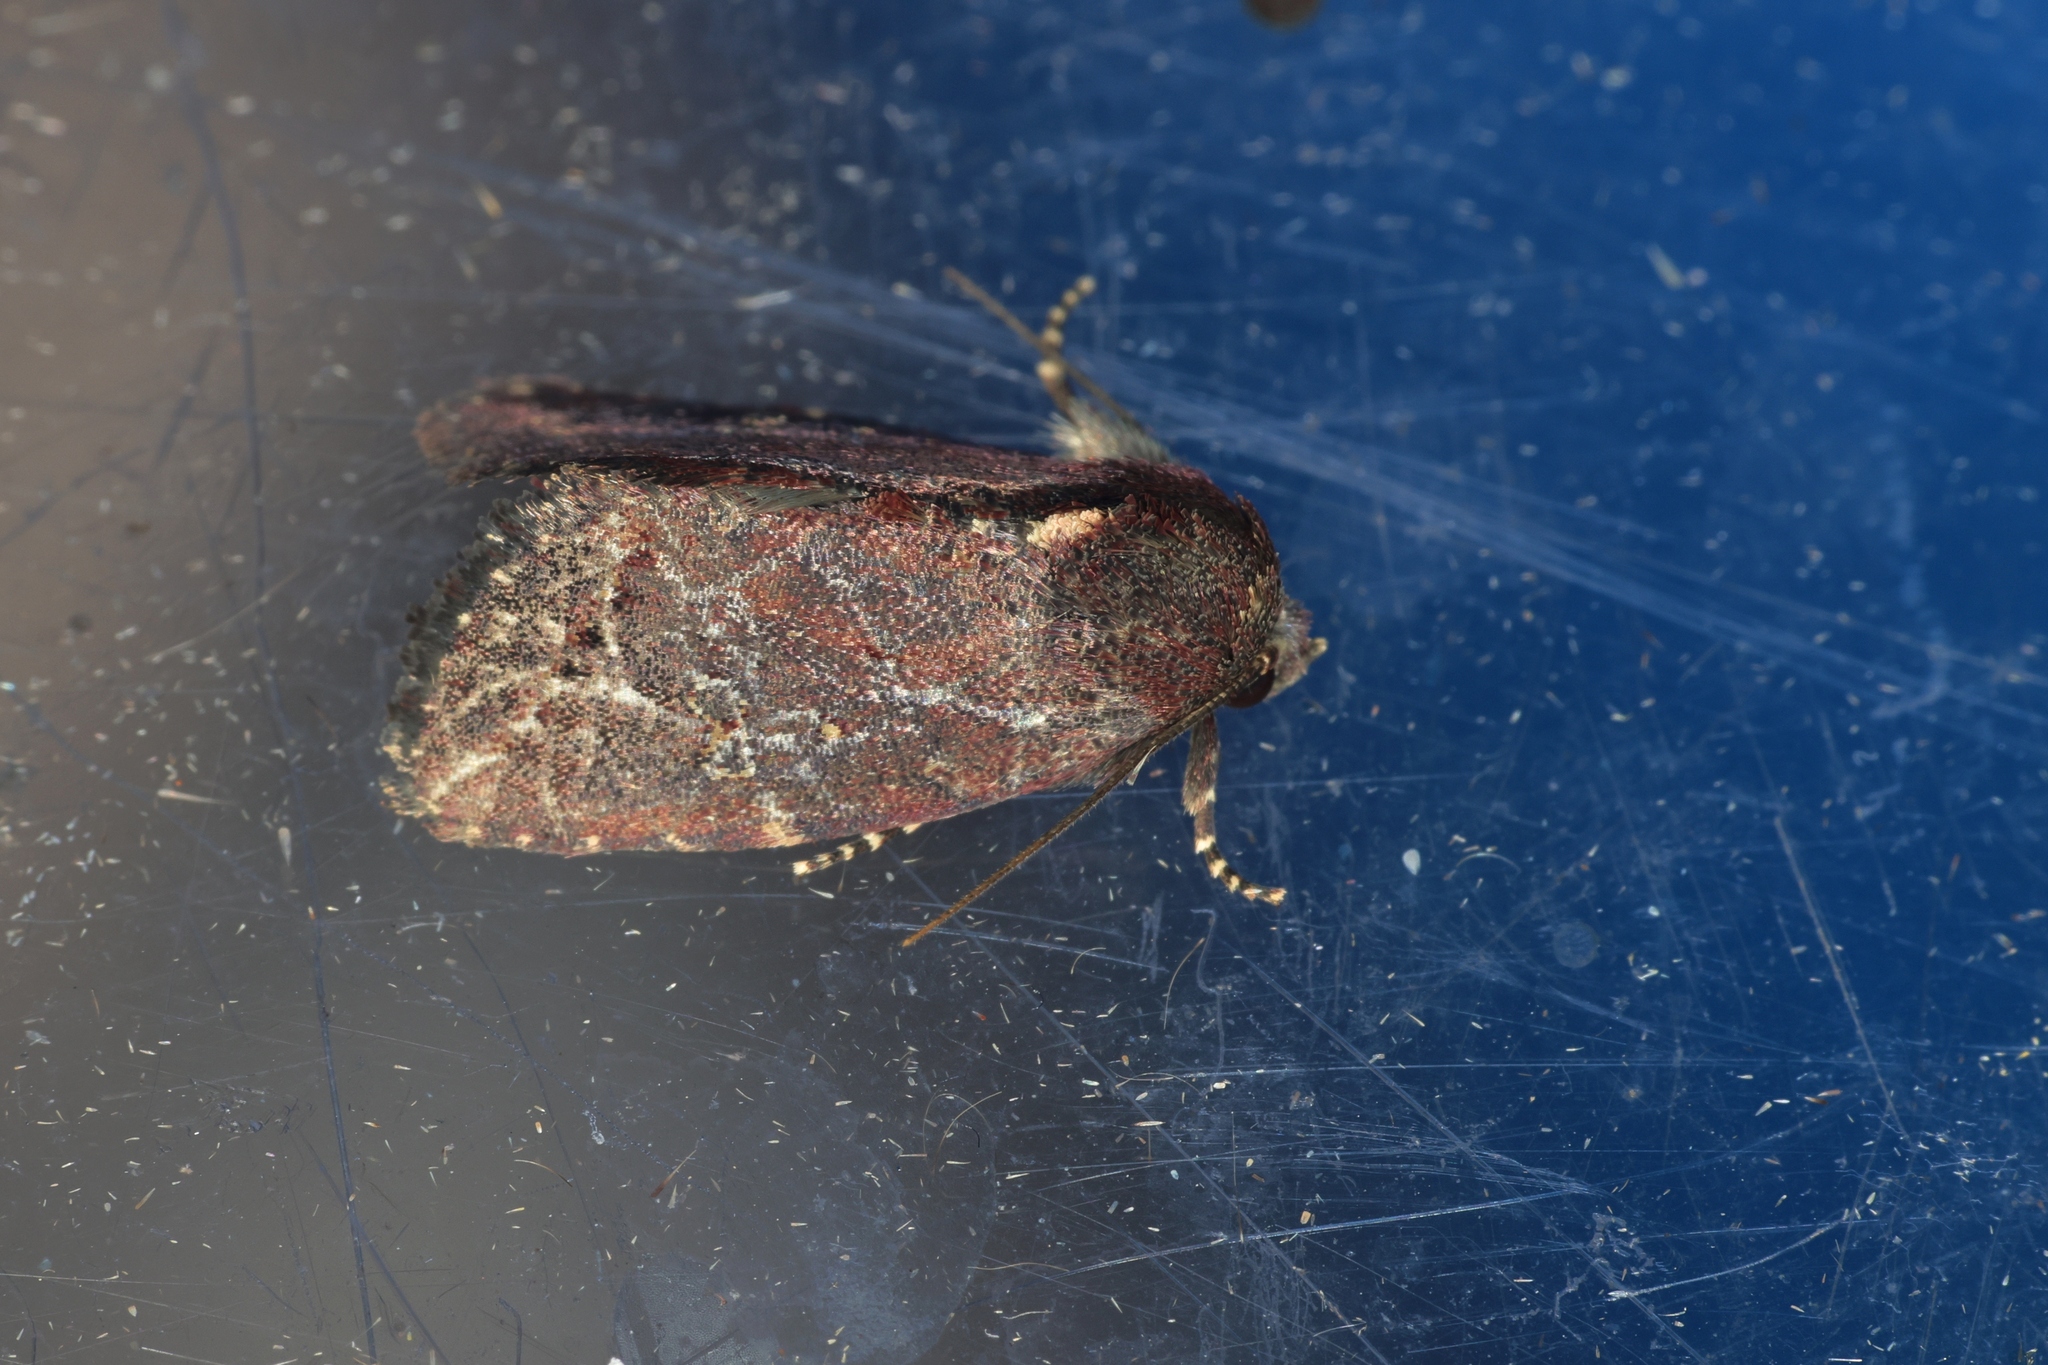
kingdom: Animalia
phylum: Arthropoda
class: Insecta
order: Lepidoptera
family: Noctuidae
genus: Elusa
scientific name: Elusa cyathicornis
